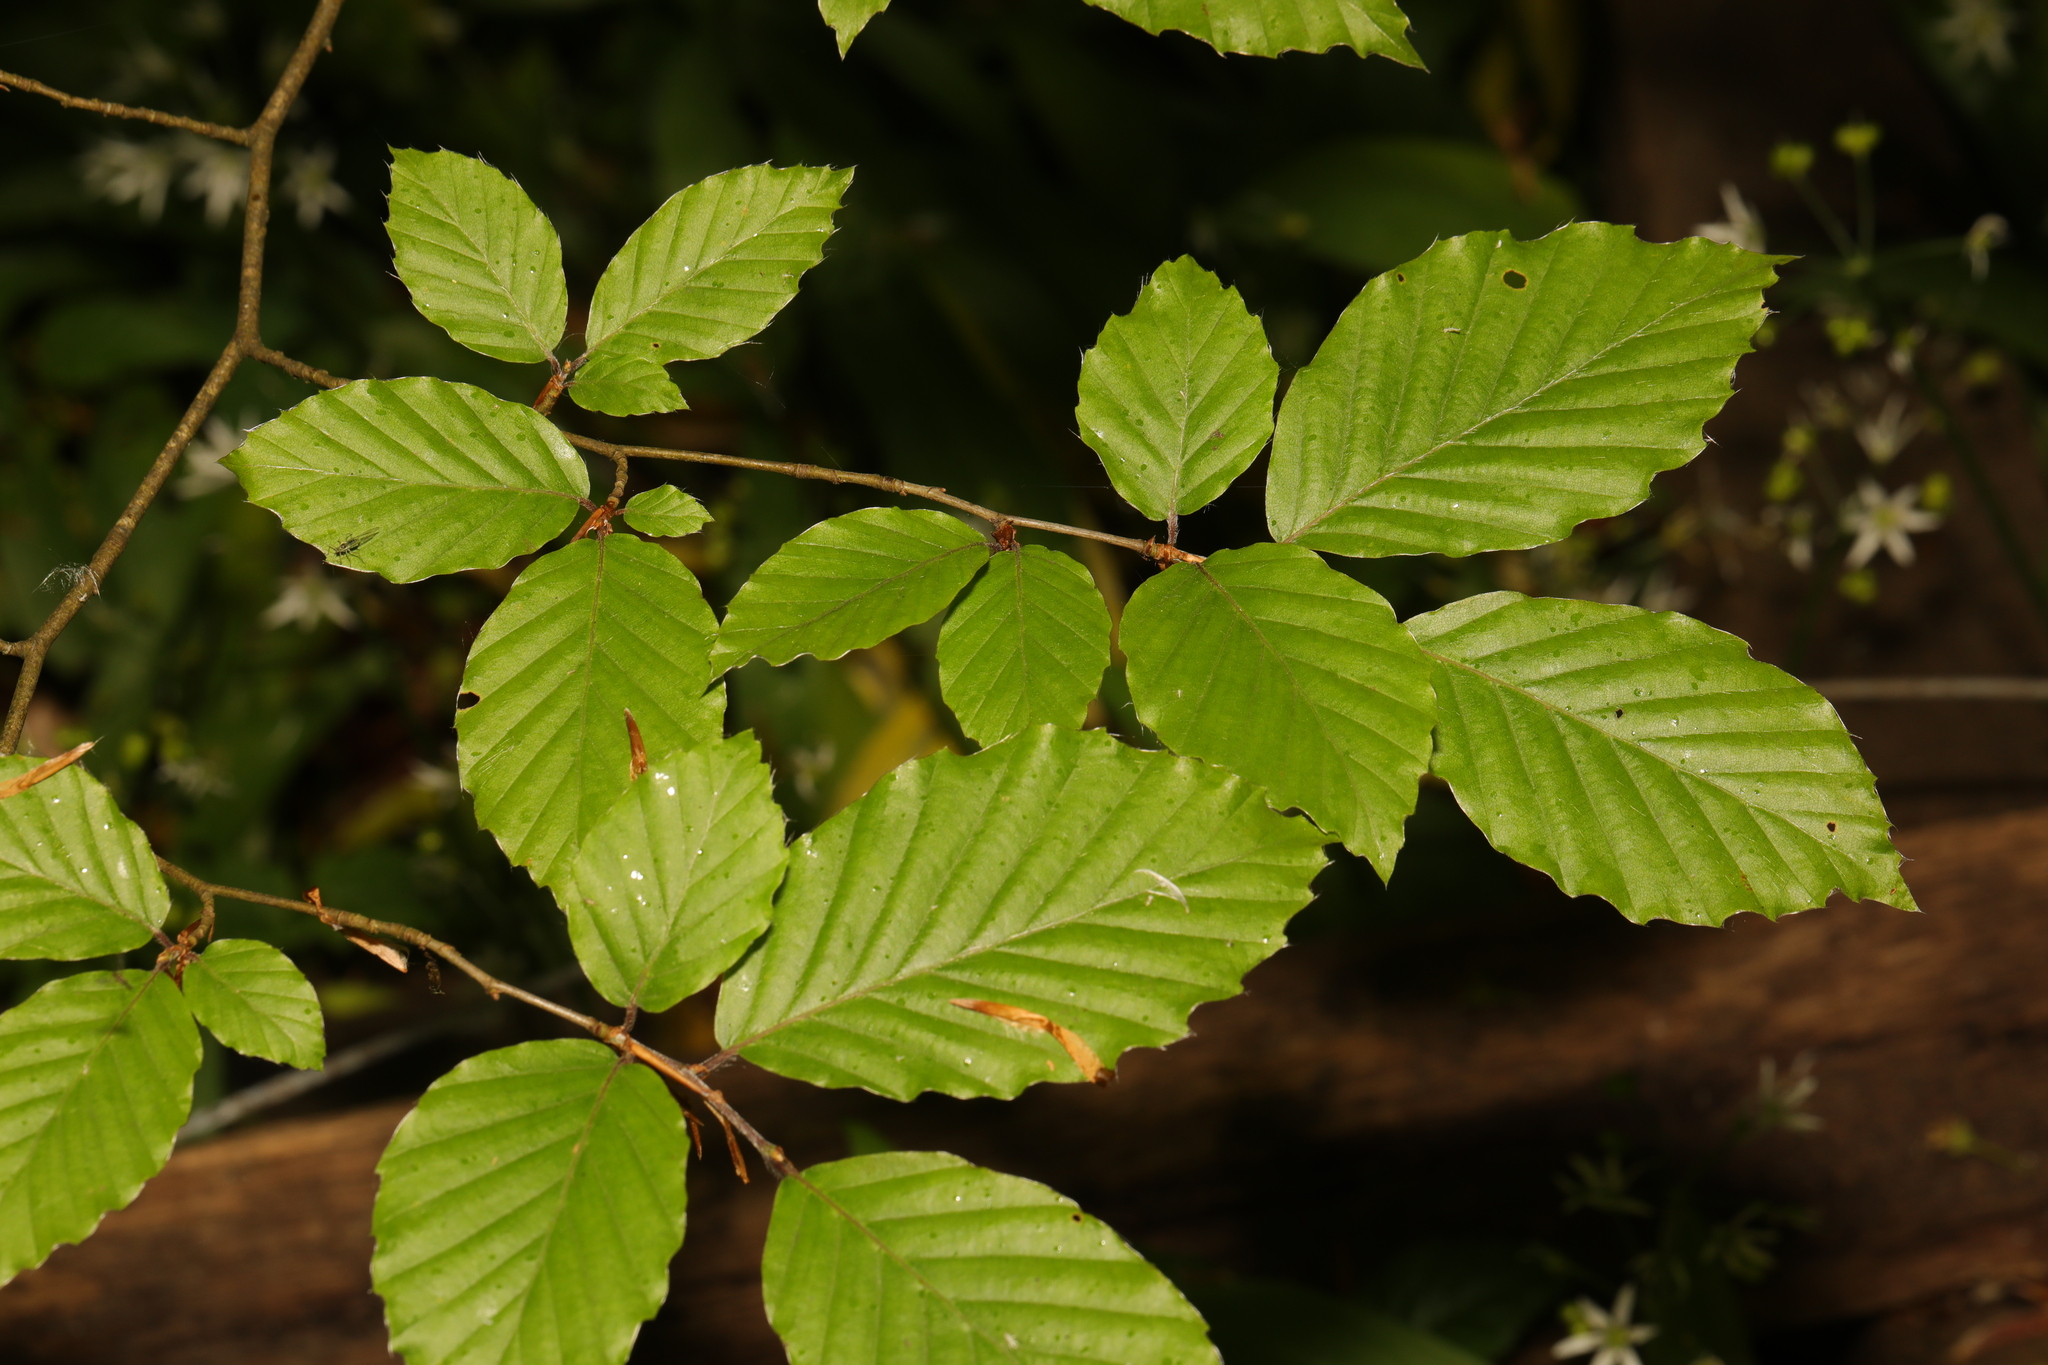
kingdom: Plantae
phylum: Tracheophyta
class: Magnoliopsida
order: Fagales
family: Fagaceae
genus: Fagus
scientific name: Fagus sylvatica
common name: Beech
